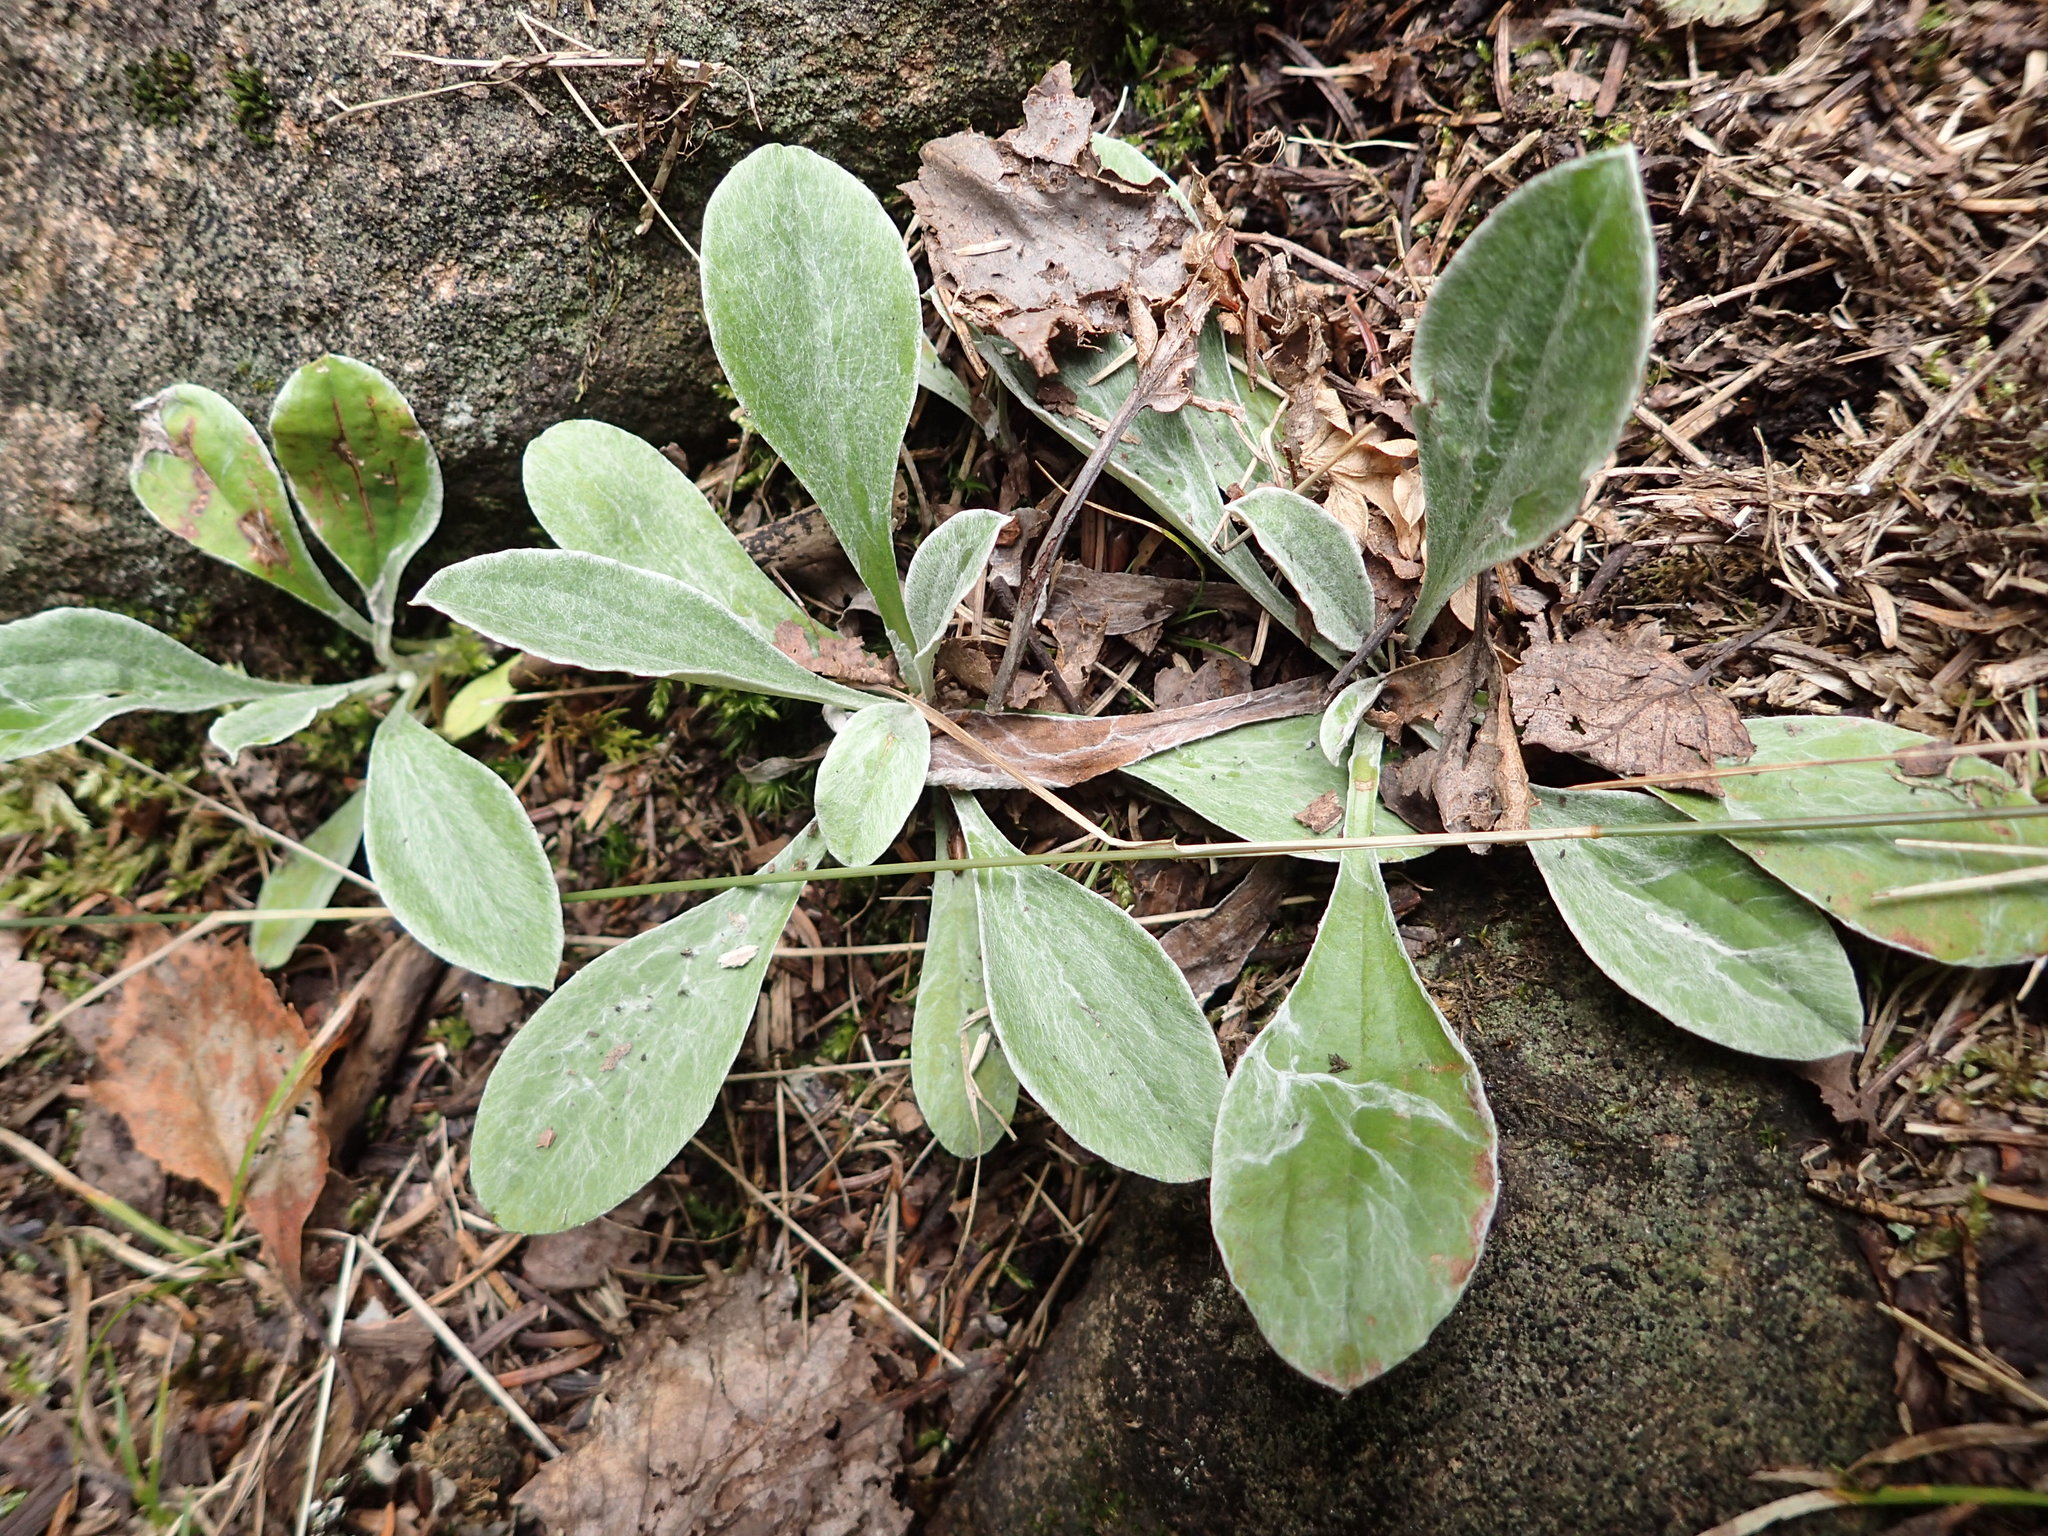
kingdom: Plantae
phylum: Tracheophyta
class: Magnoliopsida
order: Asterales
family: Asteraceae
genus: Antennaria
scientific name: Antennaria parlinii
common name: Parlin's pussytoes
